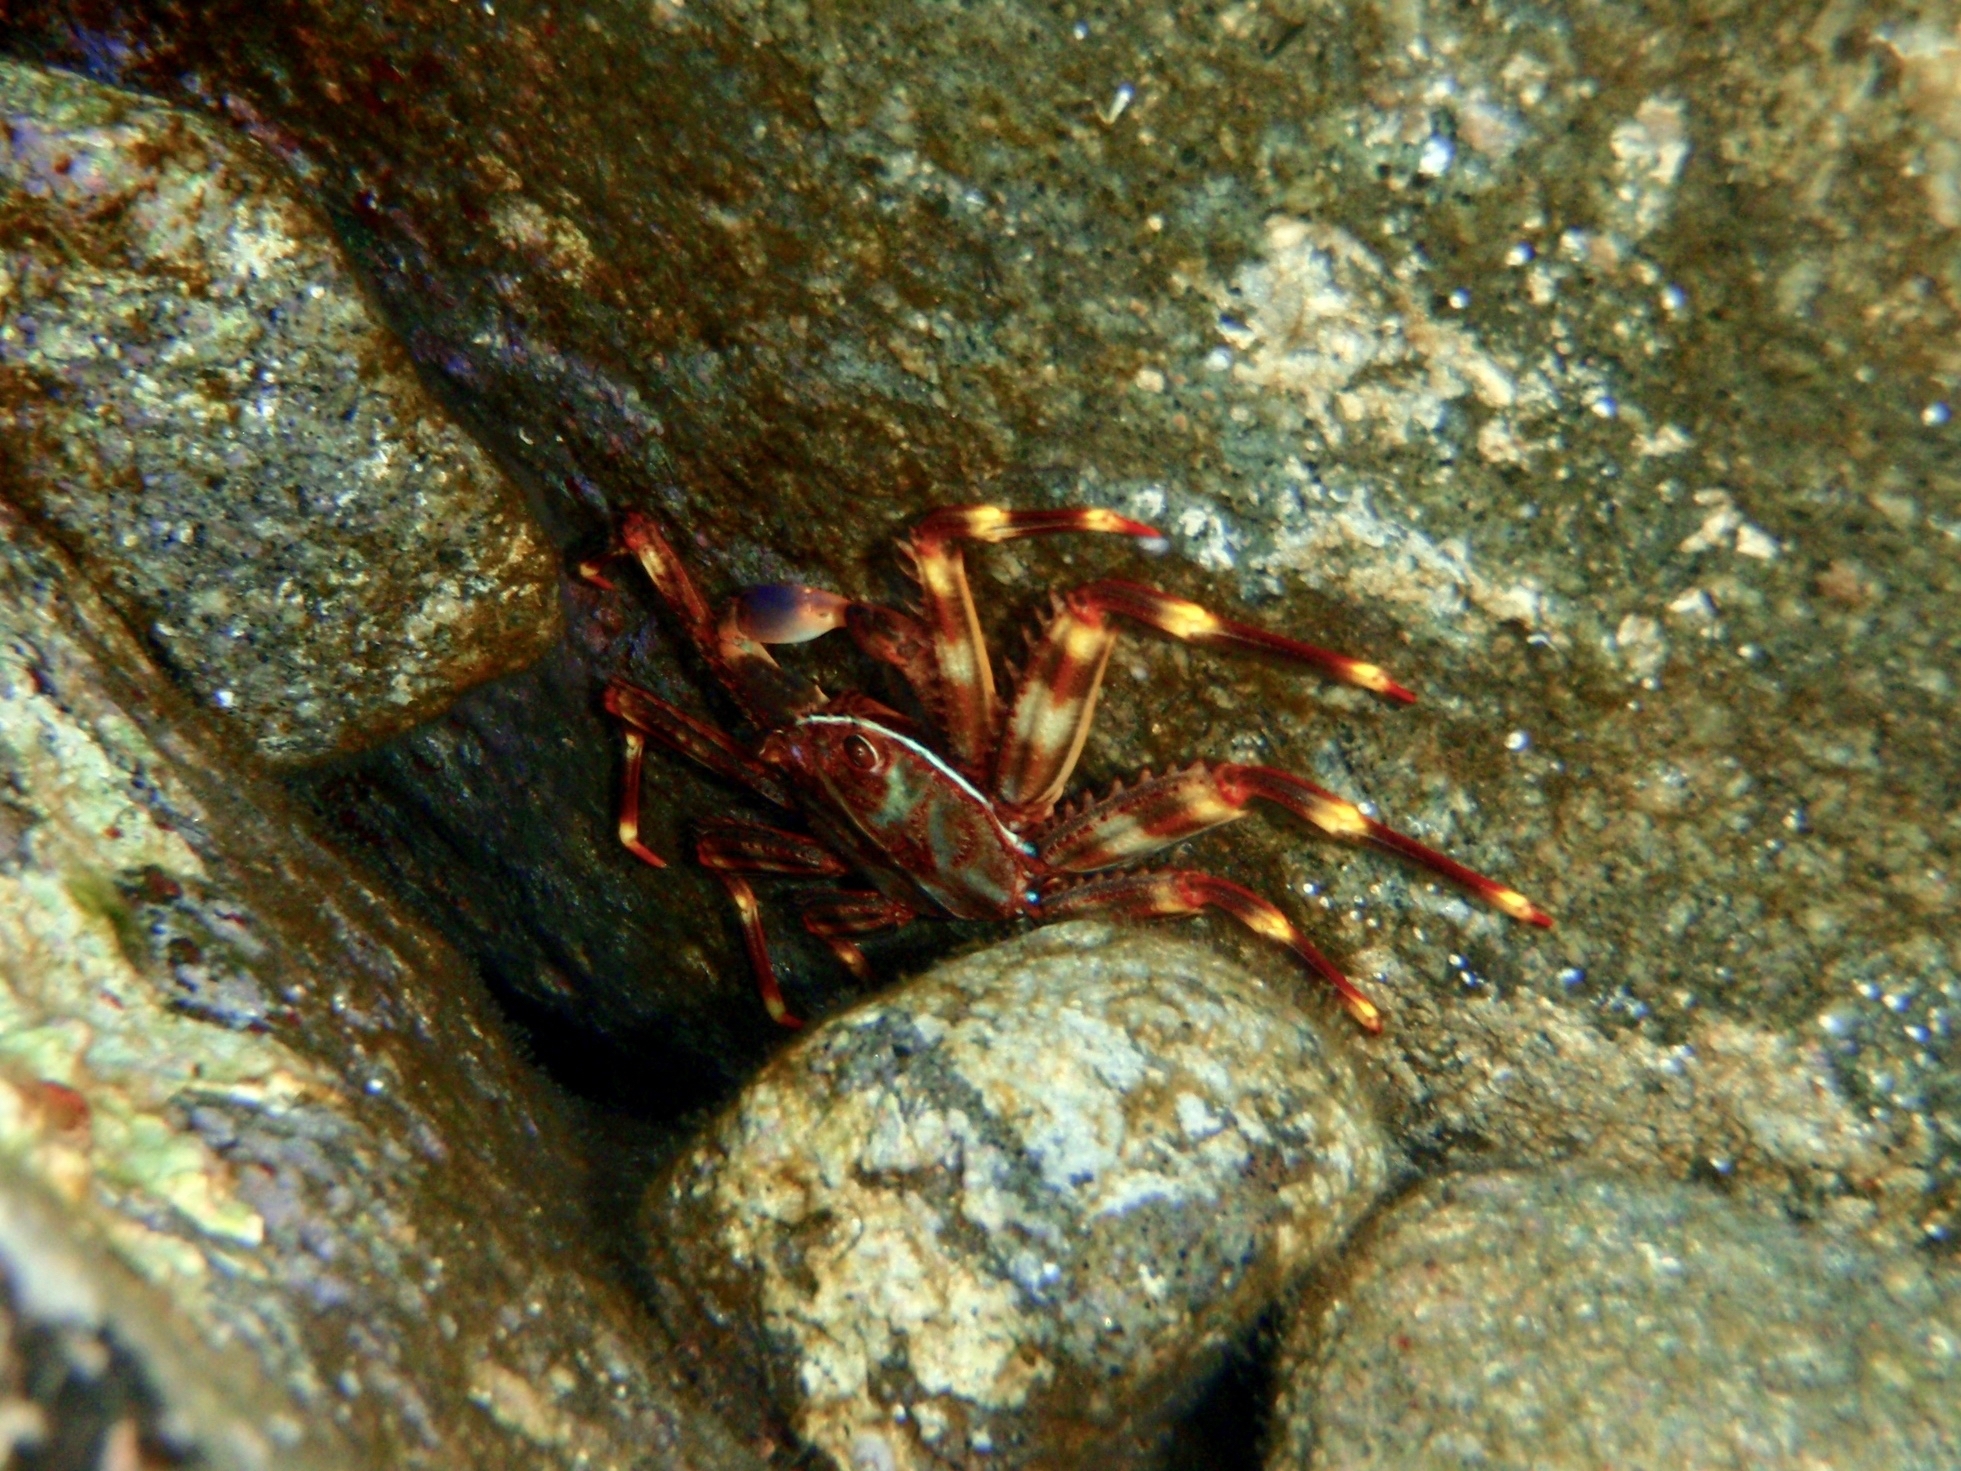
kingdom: Animalia
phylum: Arthropoda
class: Malacostraca
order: Decapoda
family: Percnidae
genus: Percnon
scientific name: Percnon gibbesi
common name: Nimble spray crab
